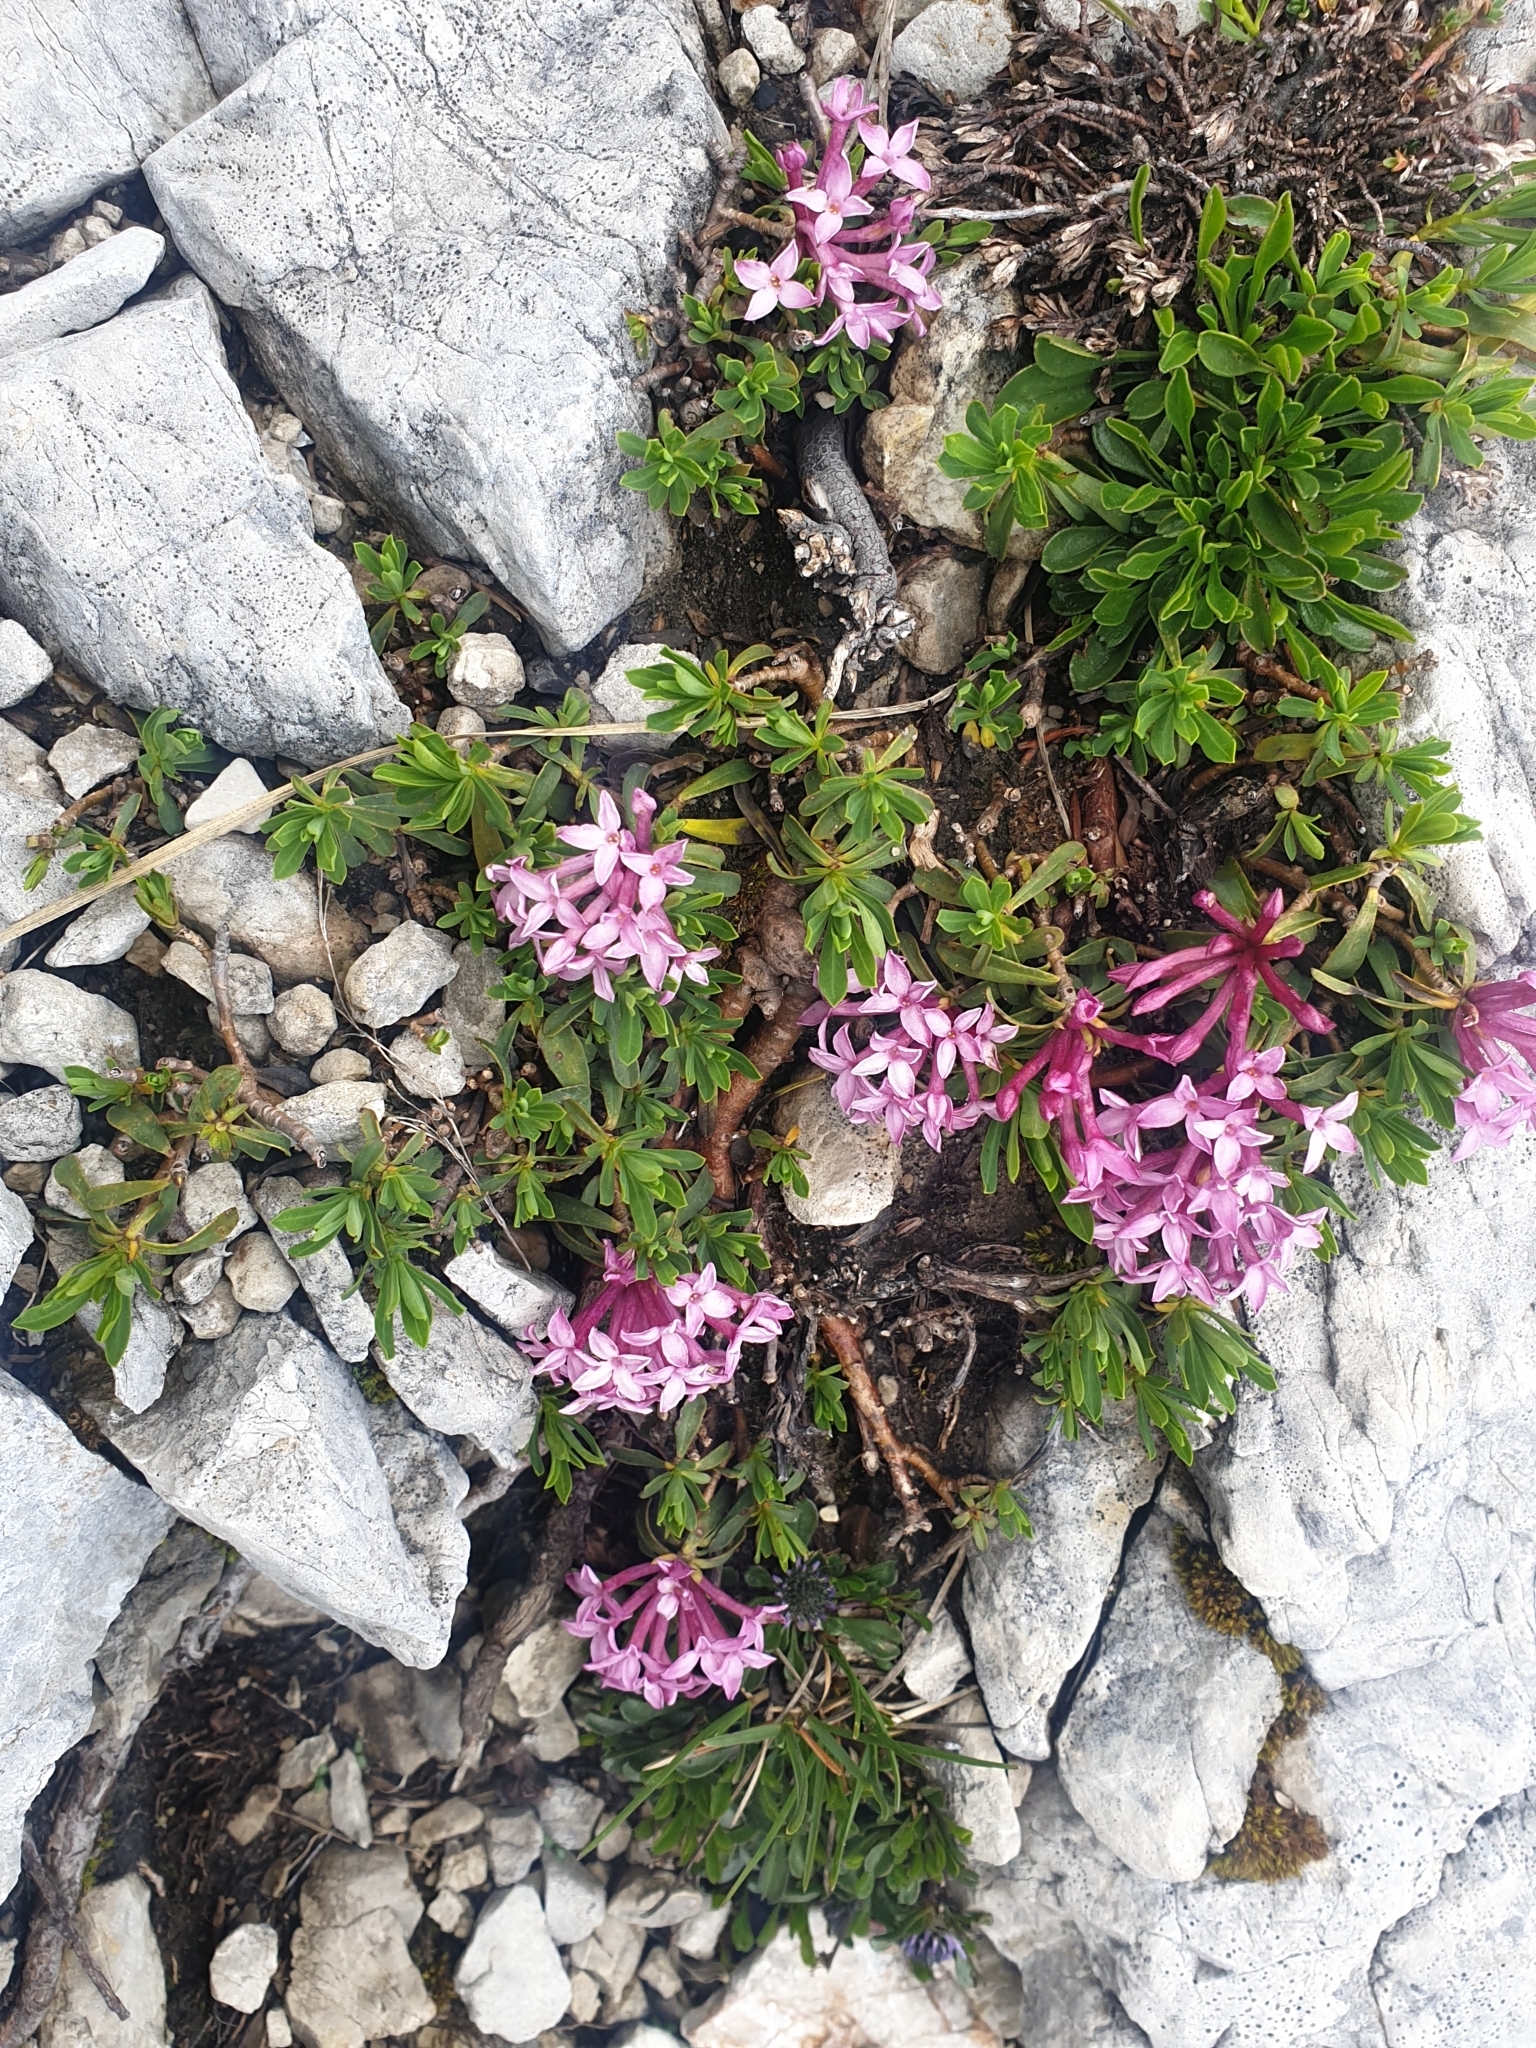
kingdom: Plantae
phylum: Tracheophyta
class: Magnoliopsida
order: Malvales
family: Thymelaeaceae
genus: Daphne
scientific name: Daphne striata
